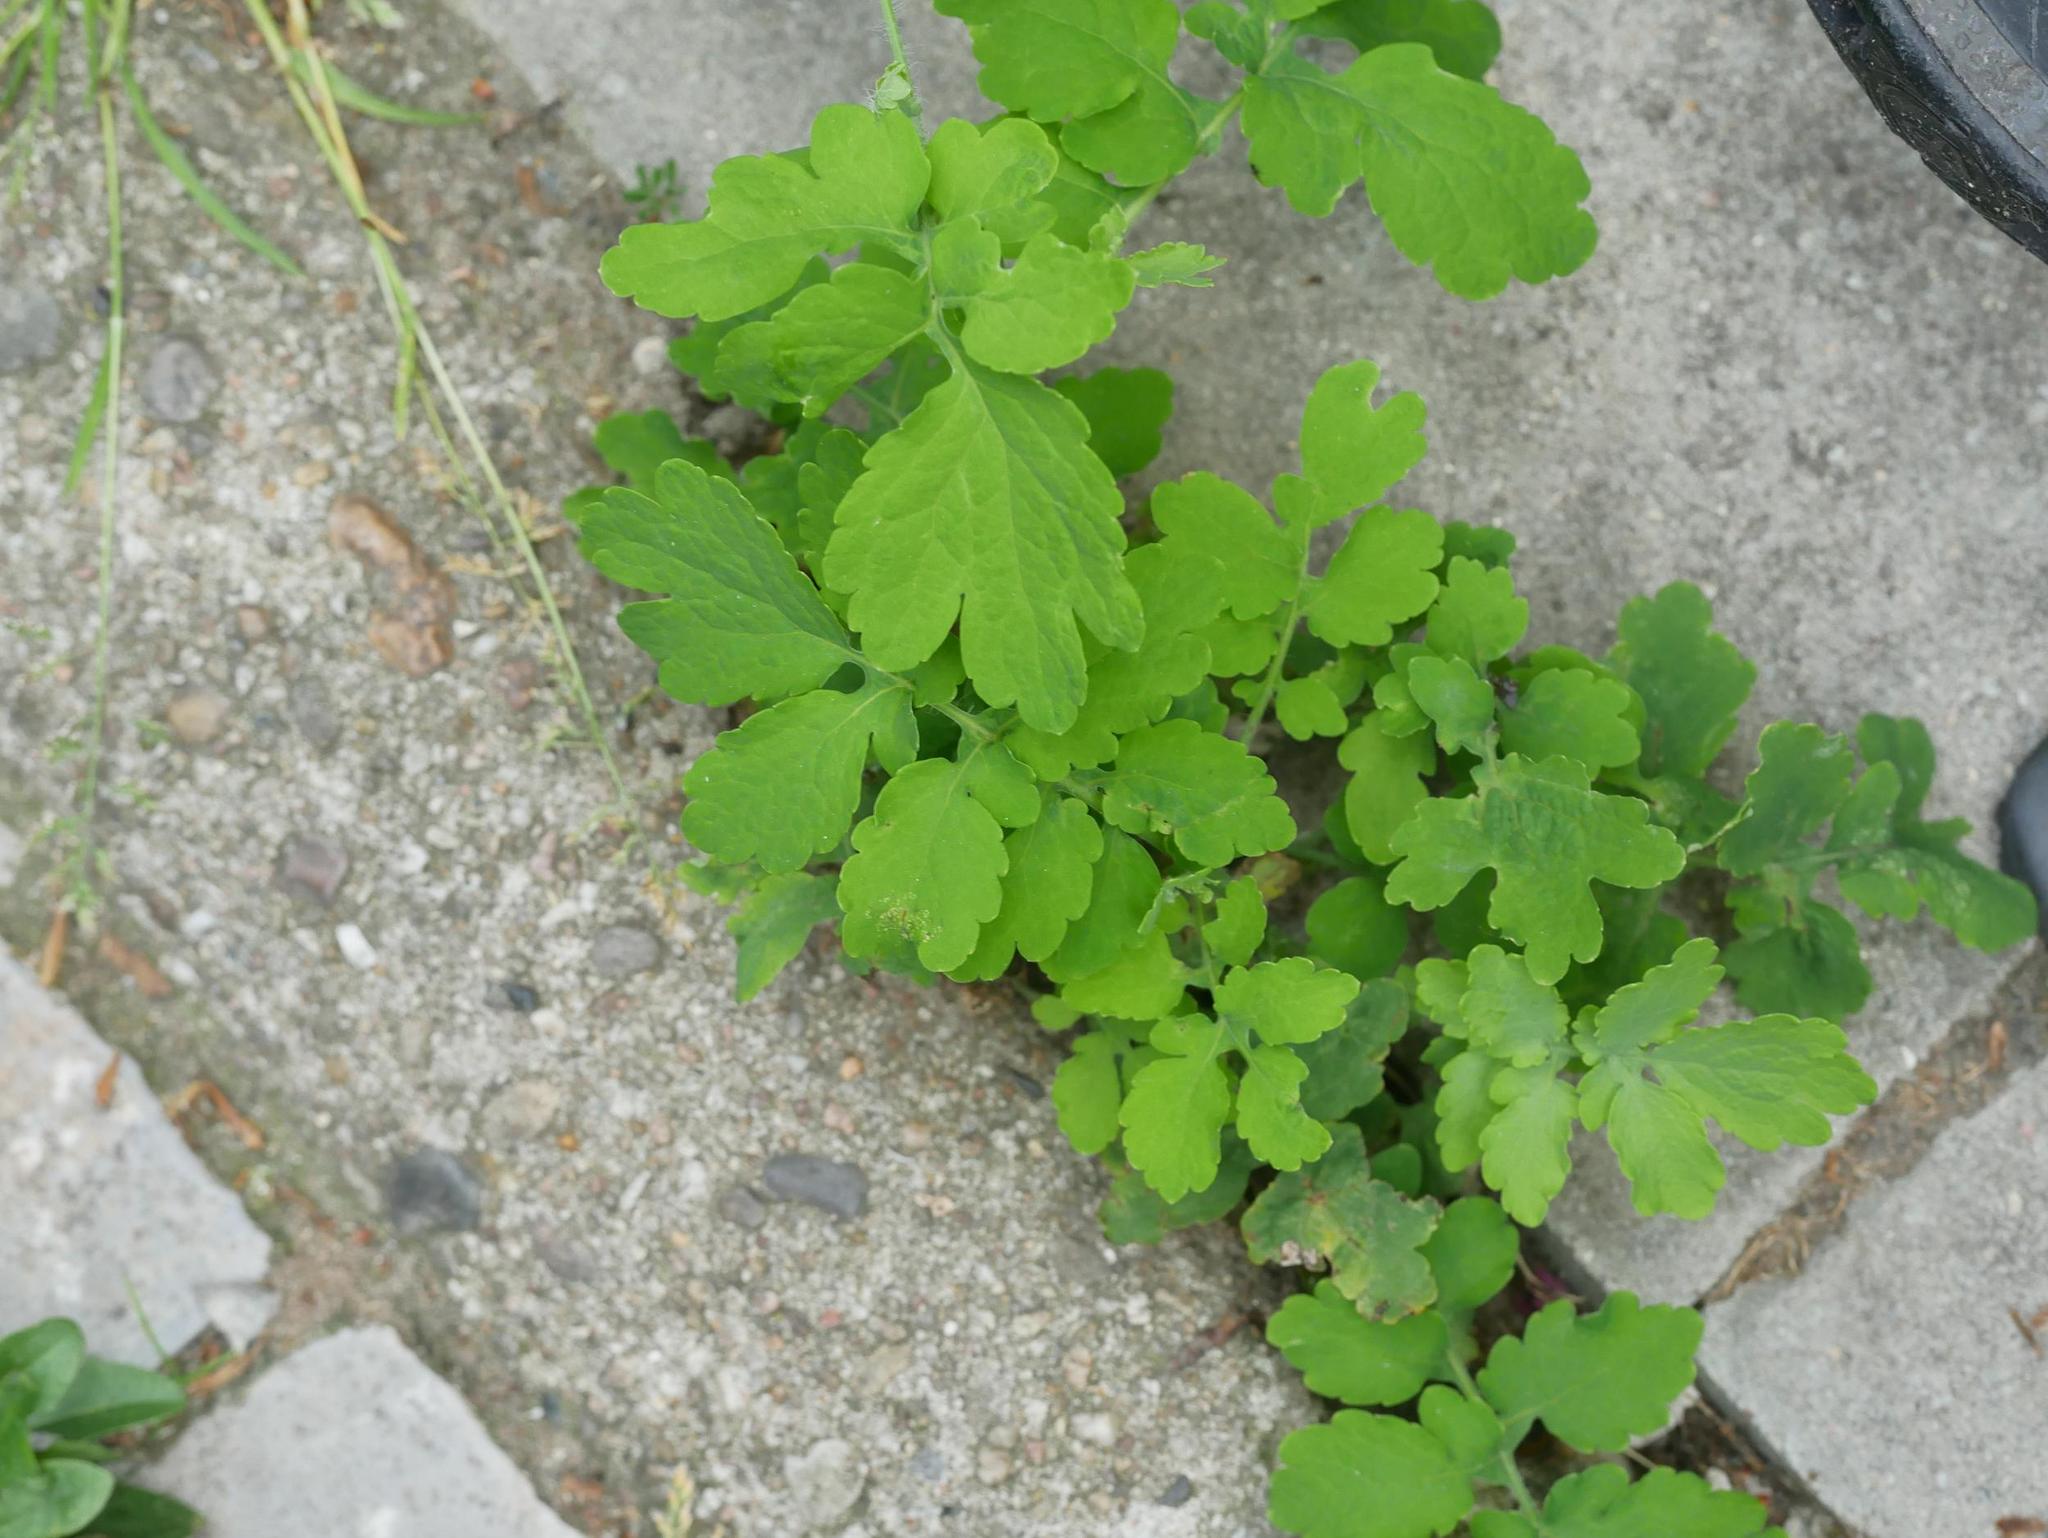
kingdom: Plantae
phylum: Tracheophyta
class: Magnoliopsida
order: Ranunculales
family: Papaveraceae
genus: Chelidonium
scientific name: Chelidonium majus
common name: Greater celandine
